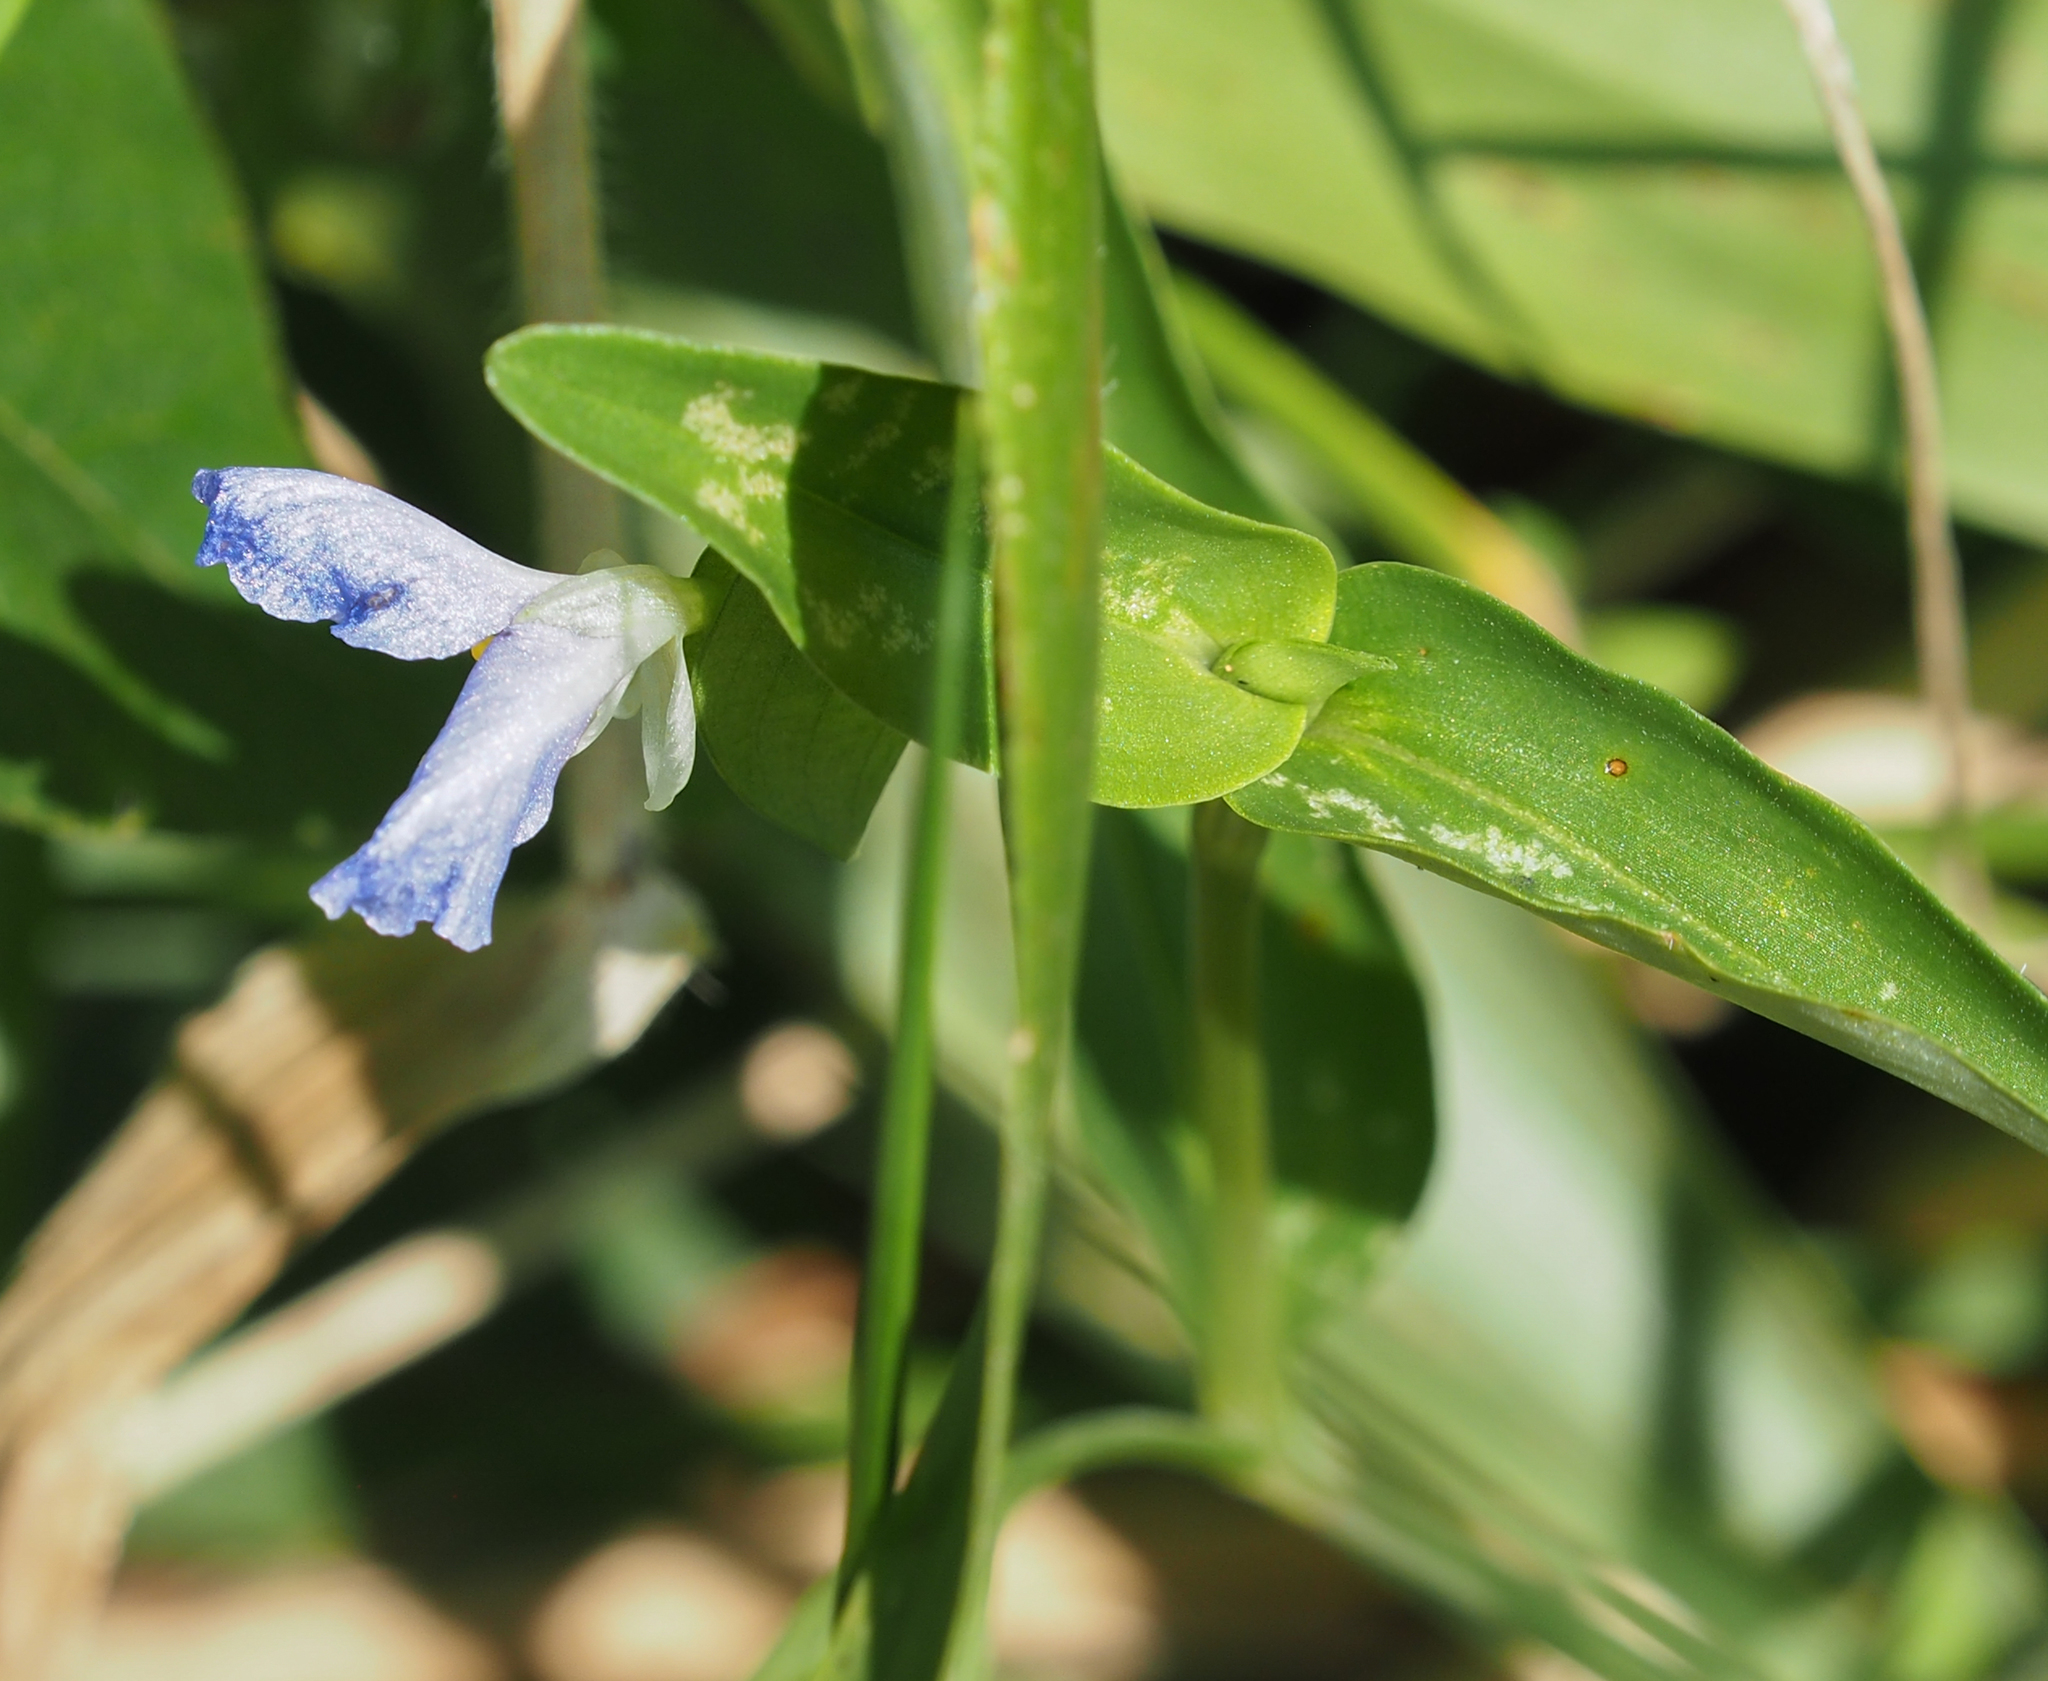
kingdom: Plantae
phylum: Tracheophyta
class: Liliopsida
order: Commelinales
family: Commelinaceae
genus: Commelina
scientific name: Commelina communis
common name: Asiatic dayflower
